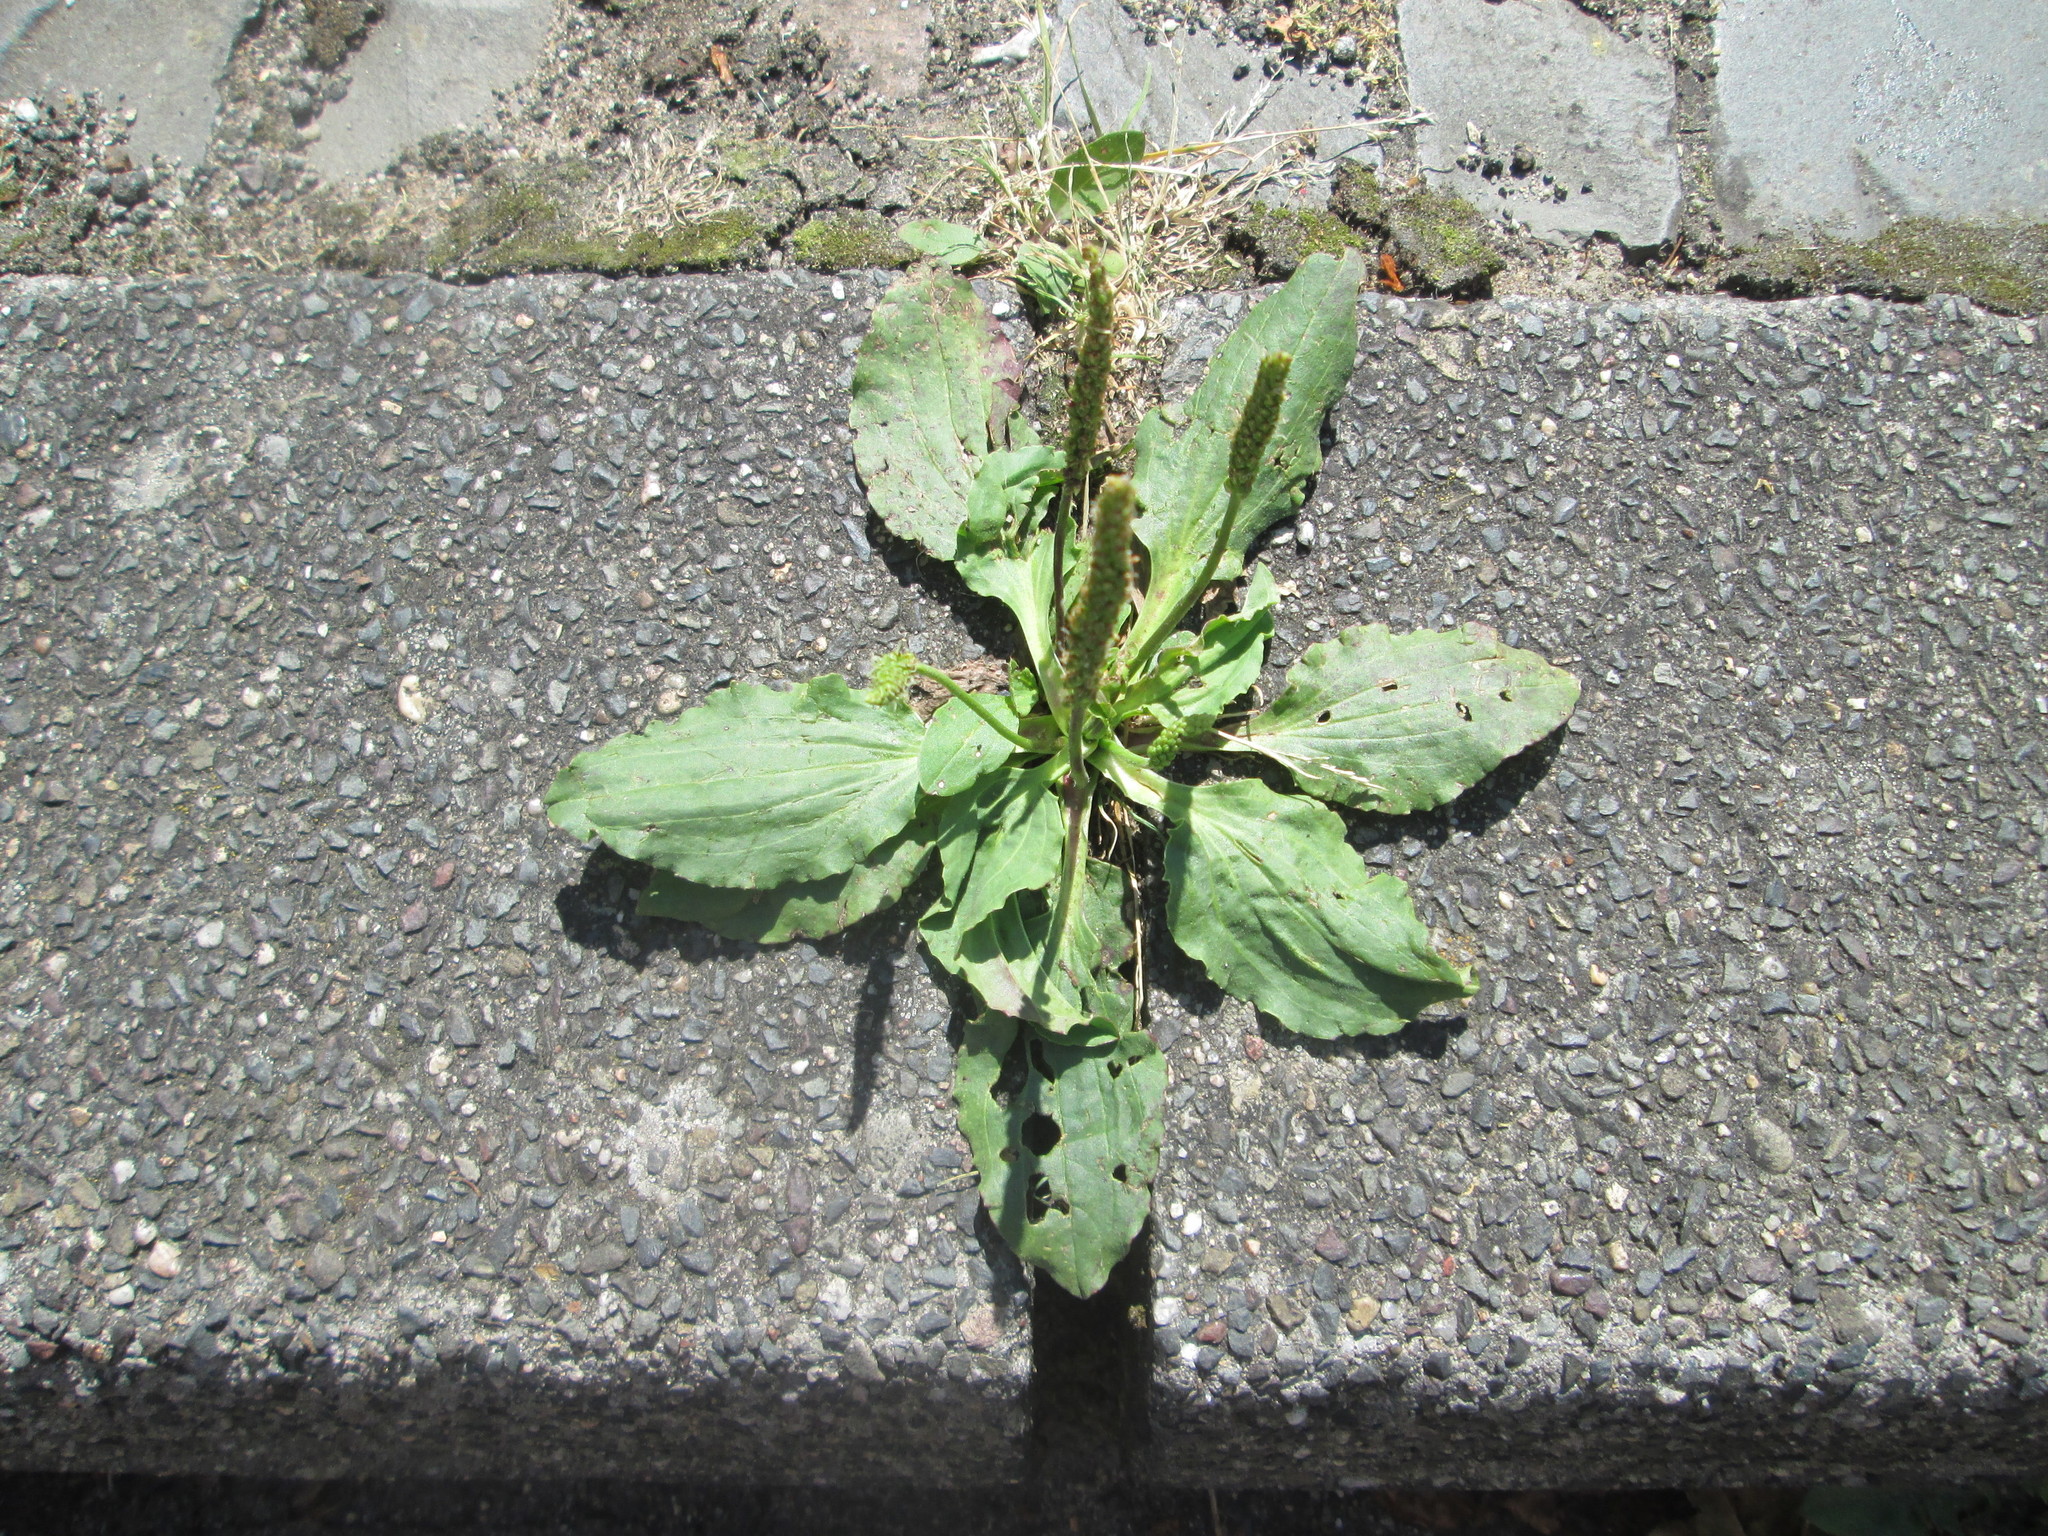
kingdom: Plantae
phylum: Tracheophyta
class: Magnoliopsida
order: Lamiales
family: Plantaginaceae
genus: Plantago
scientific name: Plantago major
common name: Common plantain
